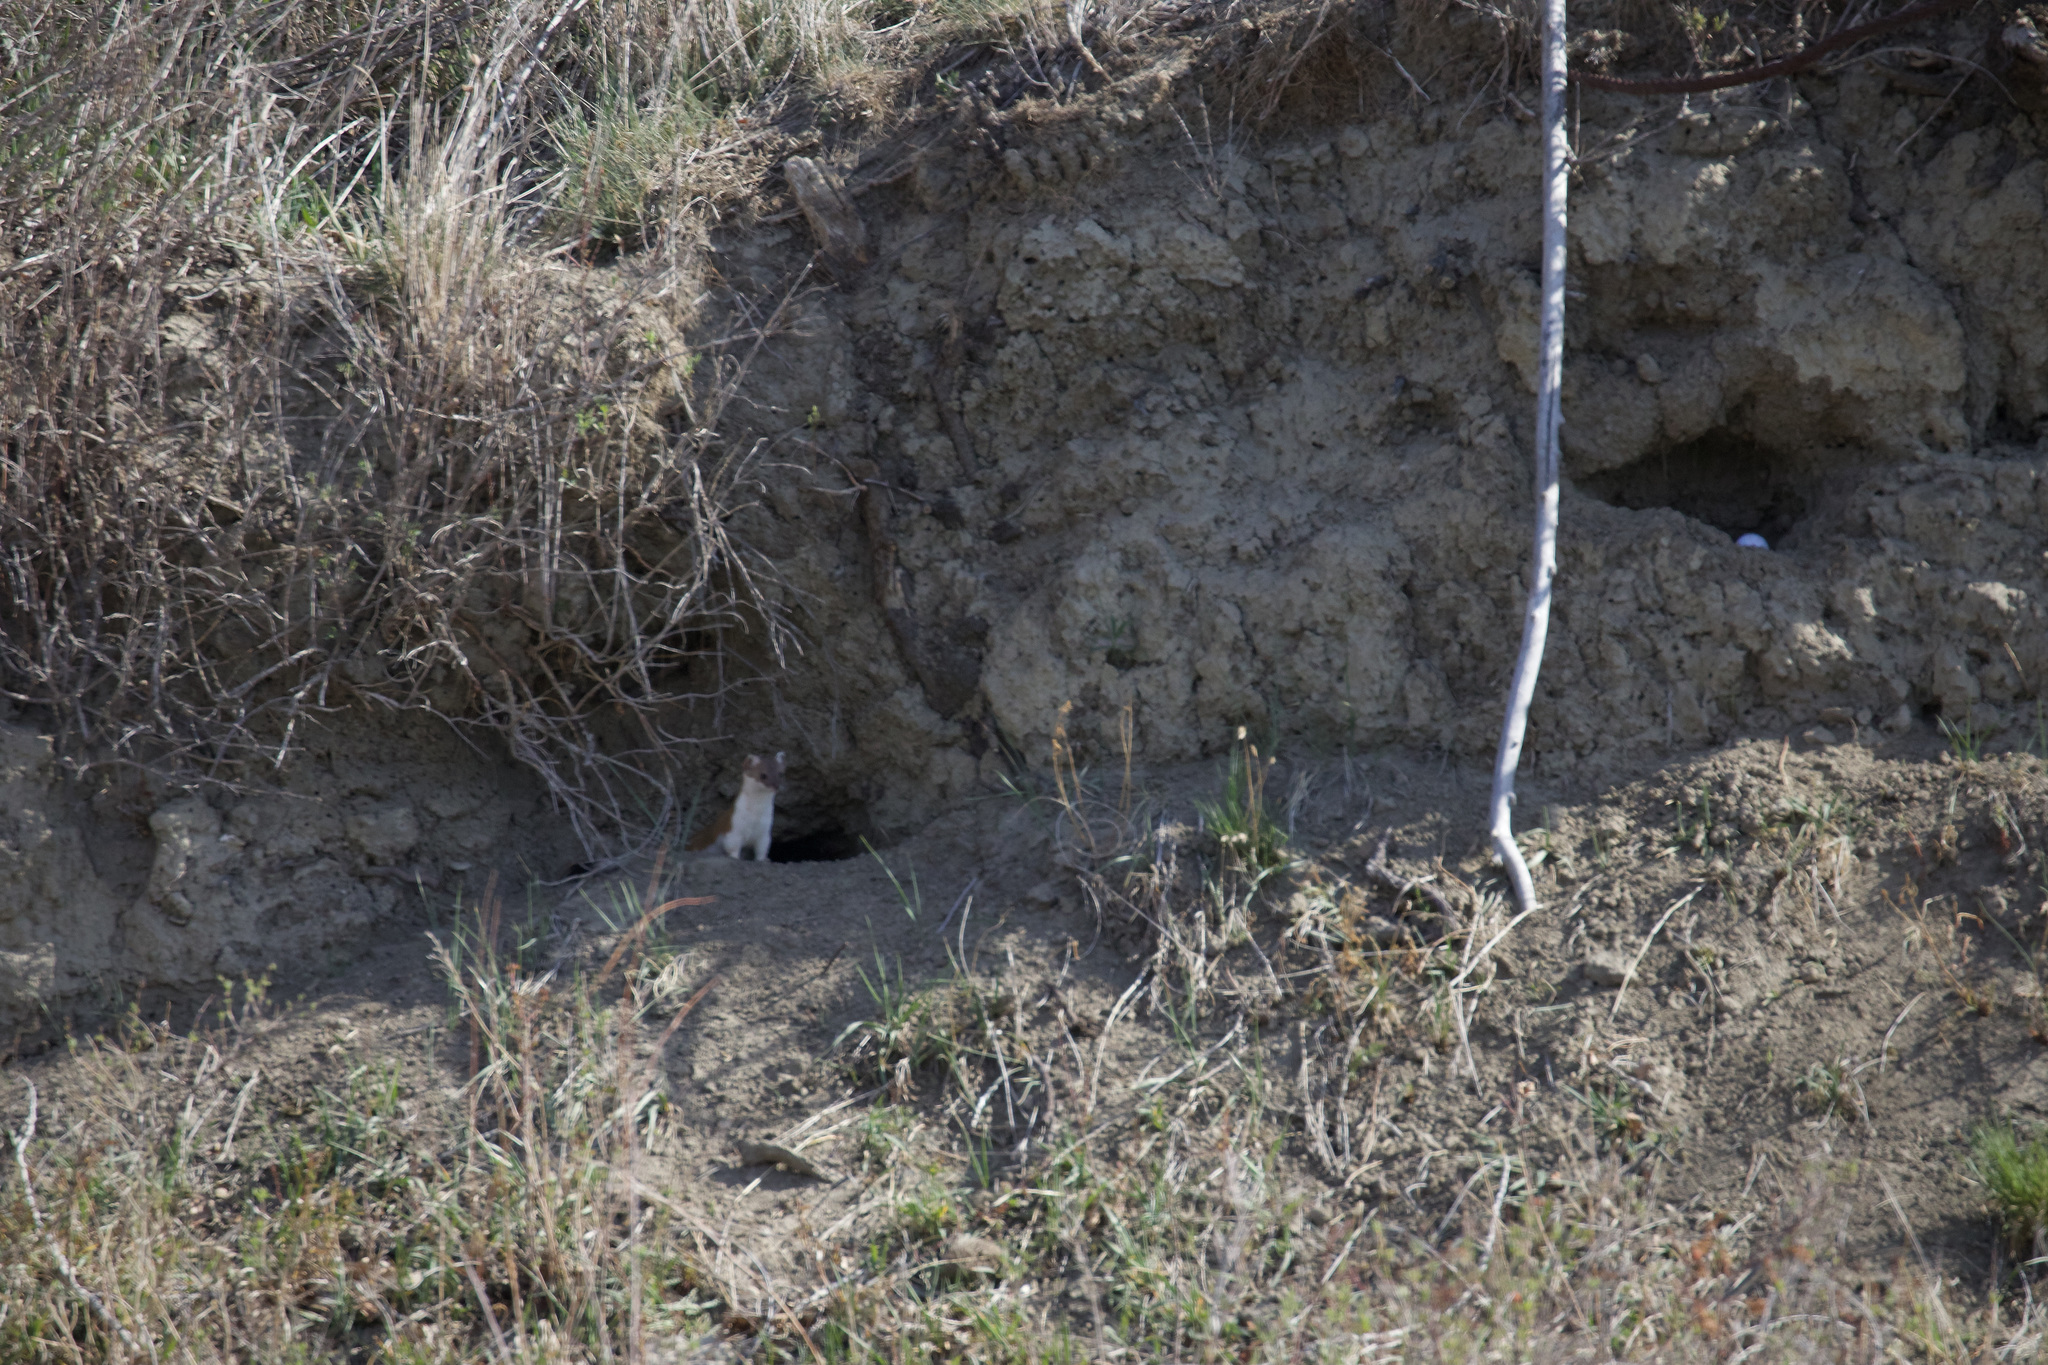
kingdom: Animalia
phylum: Chordata
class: Mammalia
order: Carnivora
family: Mustelidae
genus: Mustela
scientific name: Mustela
